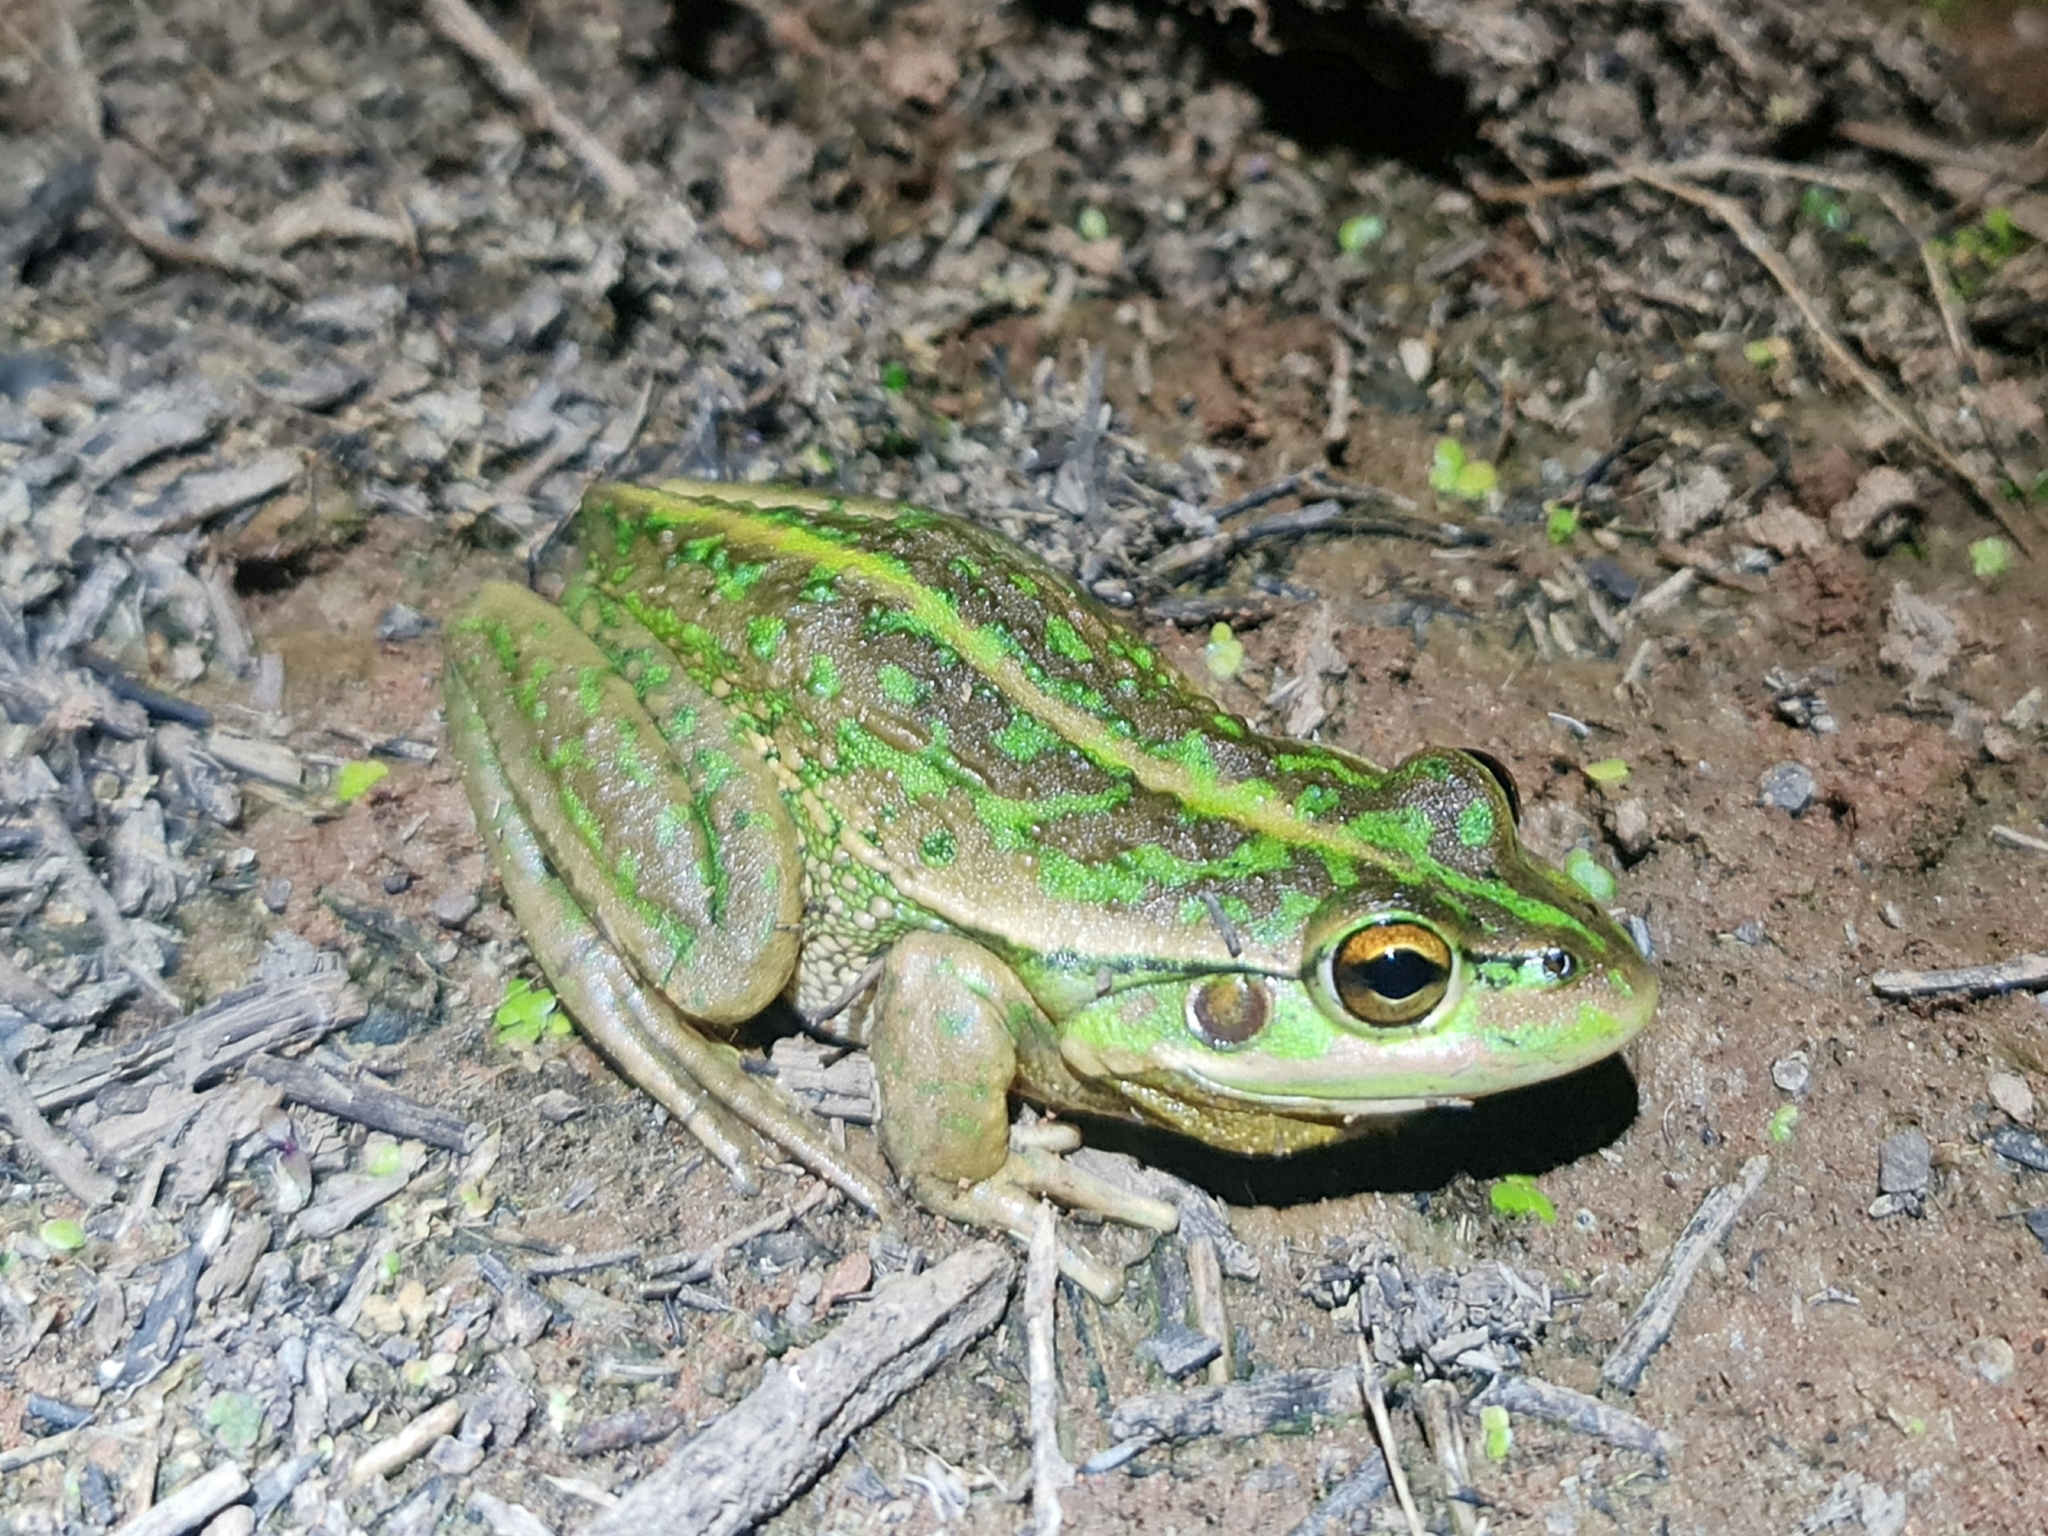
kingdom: Animalia
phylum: Chordata
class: Amphibia
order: Anura
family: Pelodryadidae
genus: Ranoidea
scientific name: Ranoidea raniformis
